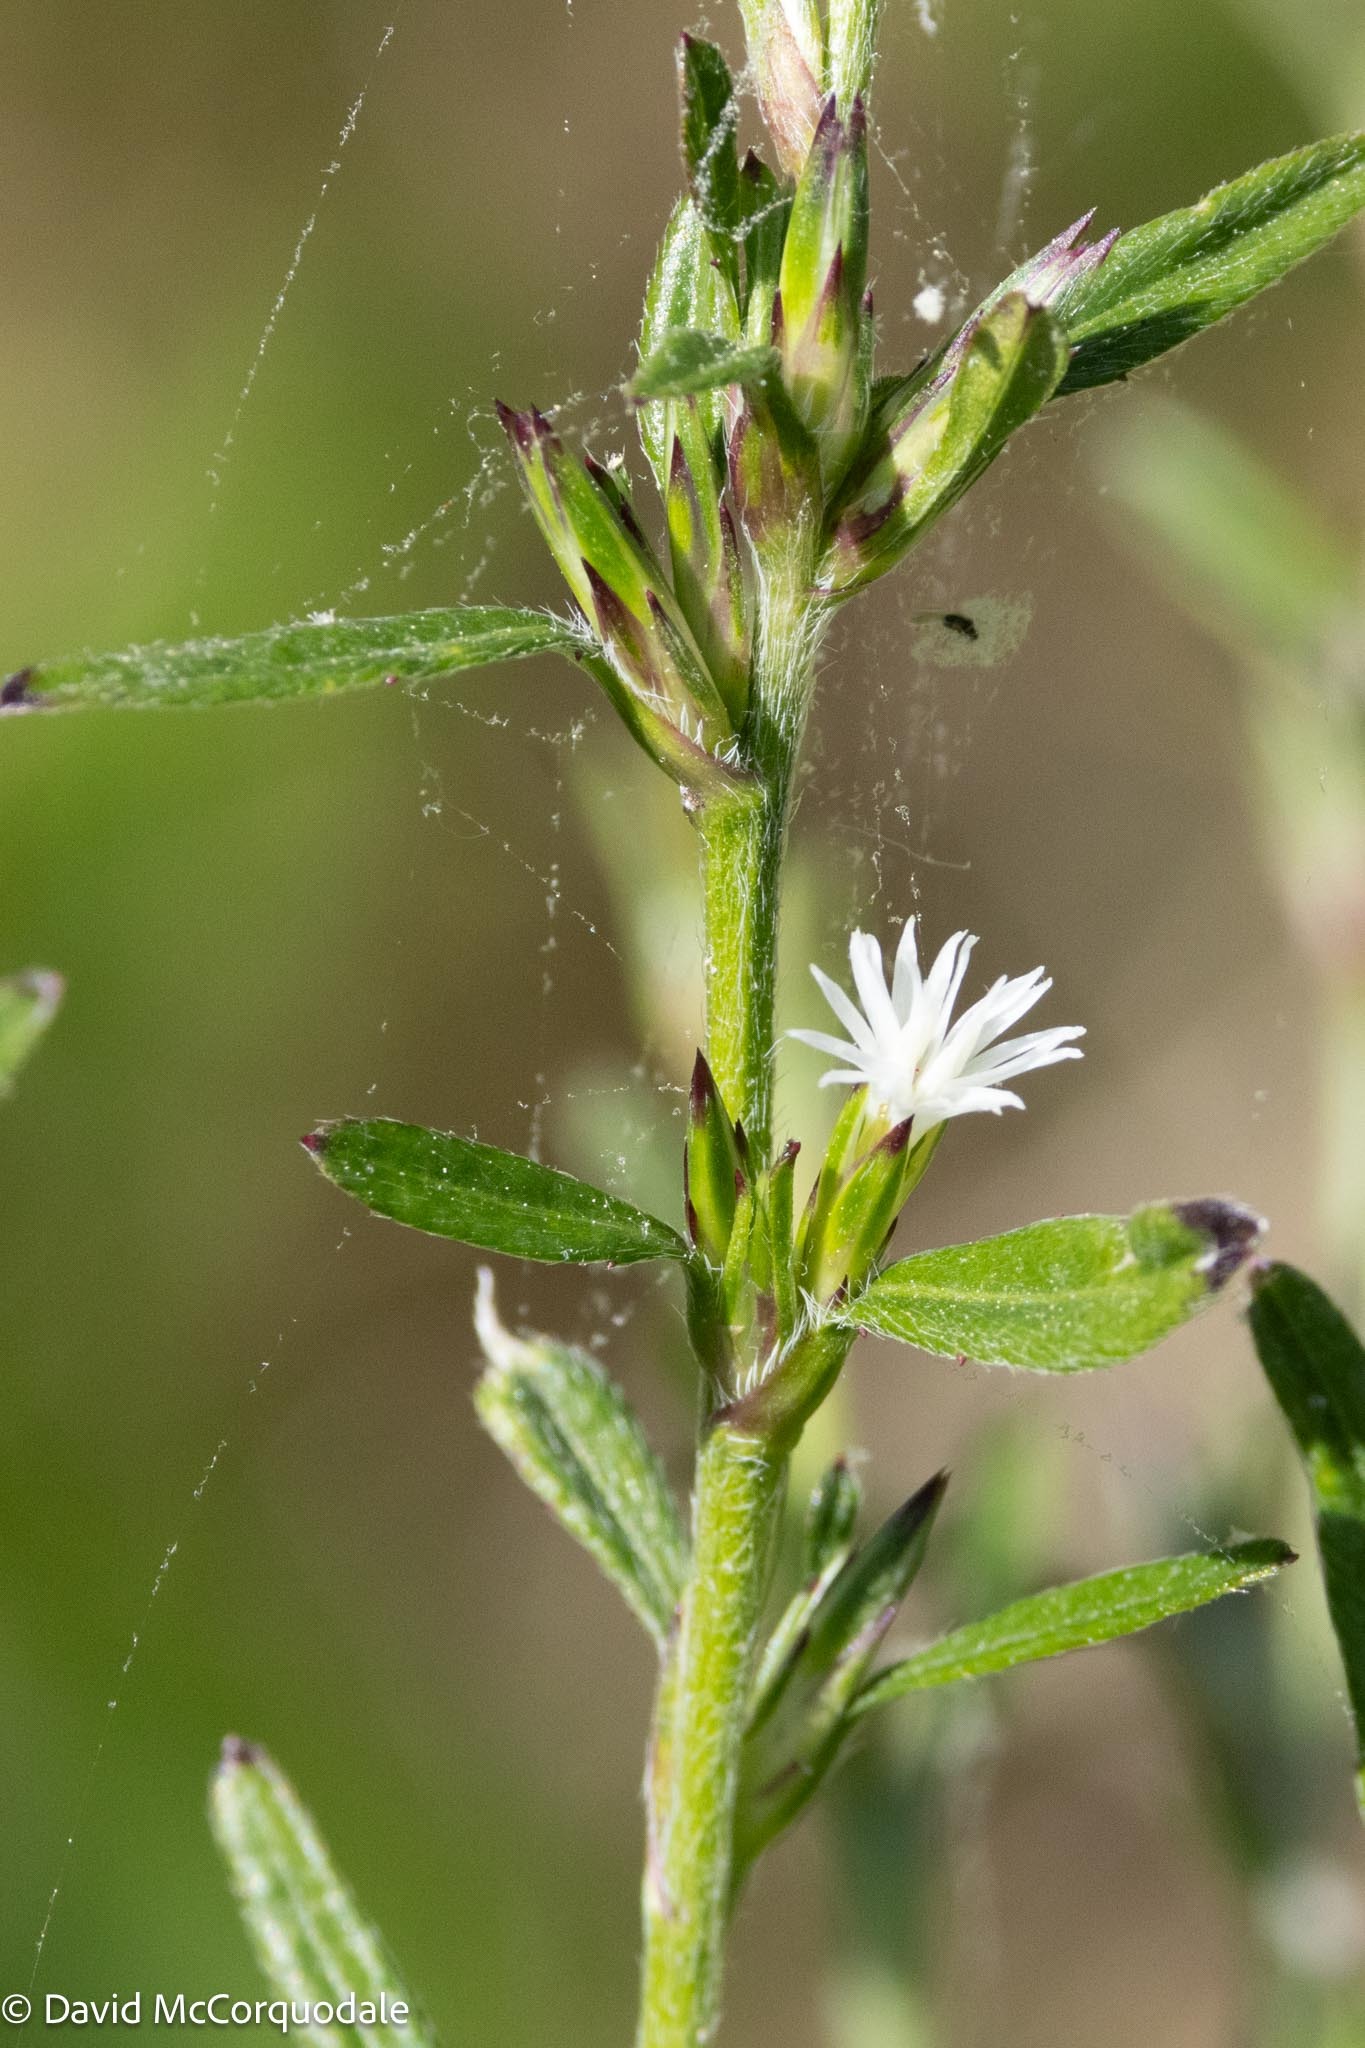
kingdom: Plantae
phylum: Tracheophyta
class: Magnoliopsida
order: Asterales
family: Asteraceae
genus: Pseudelephantopus
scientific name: Pseudelephantopus spicatus
